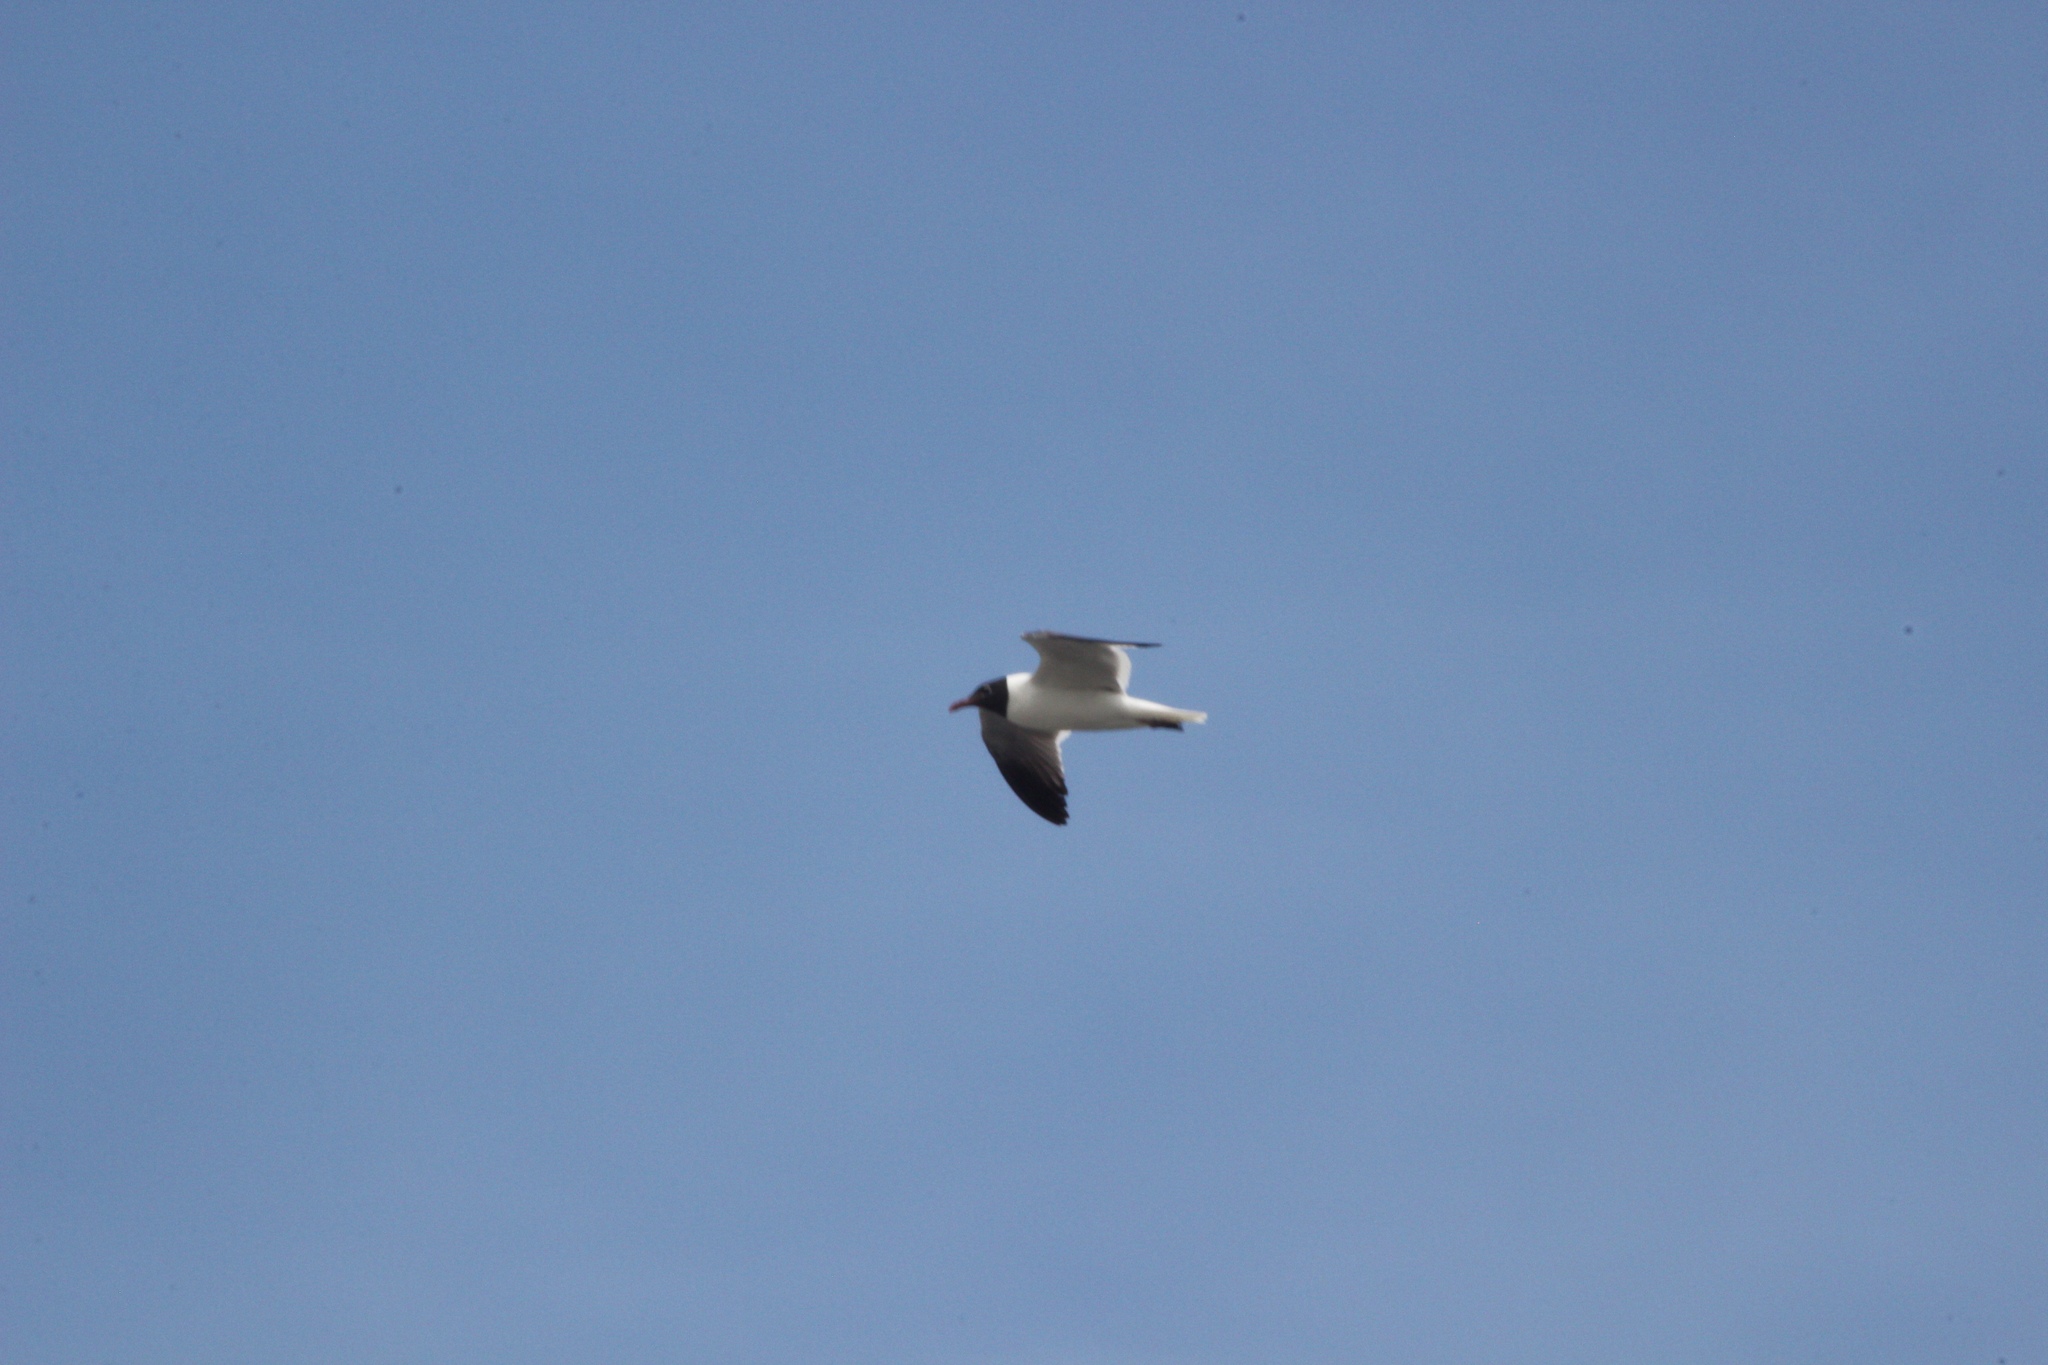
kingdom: Animalia
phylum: Chordata
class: Aves
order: Charadriiformes
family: Laridae
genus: Leucophaeus
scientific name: Leucophaeus atricilla
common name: Laughing gull
